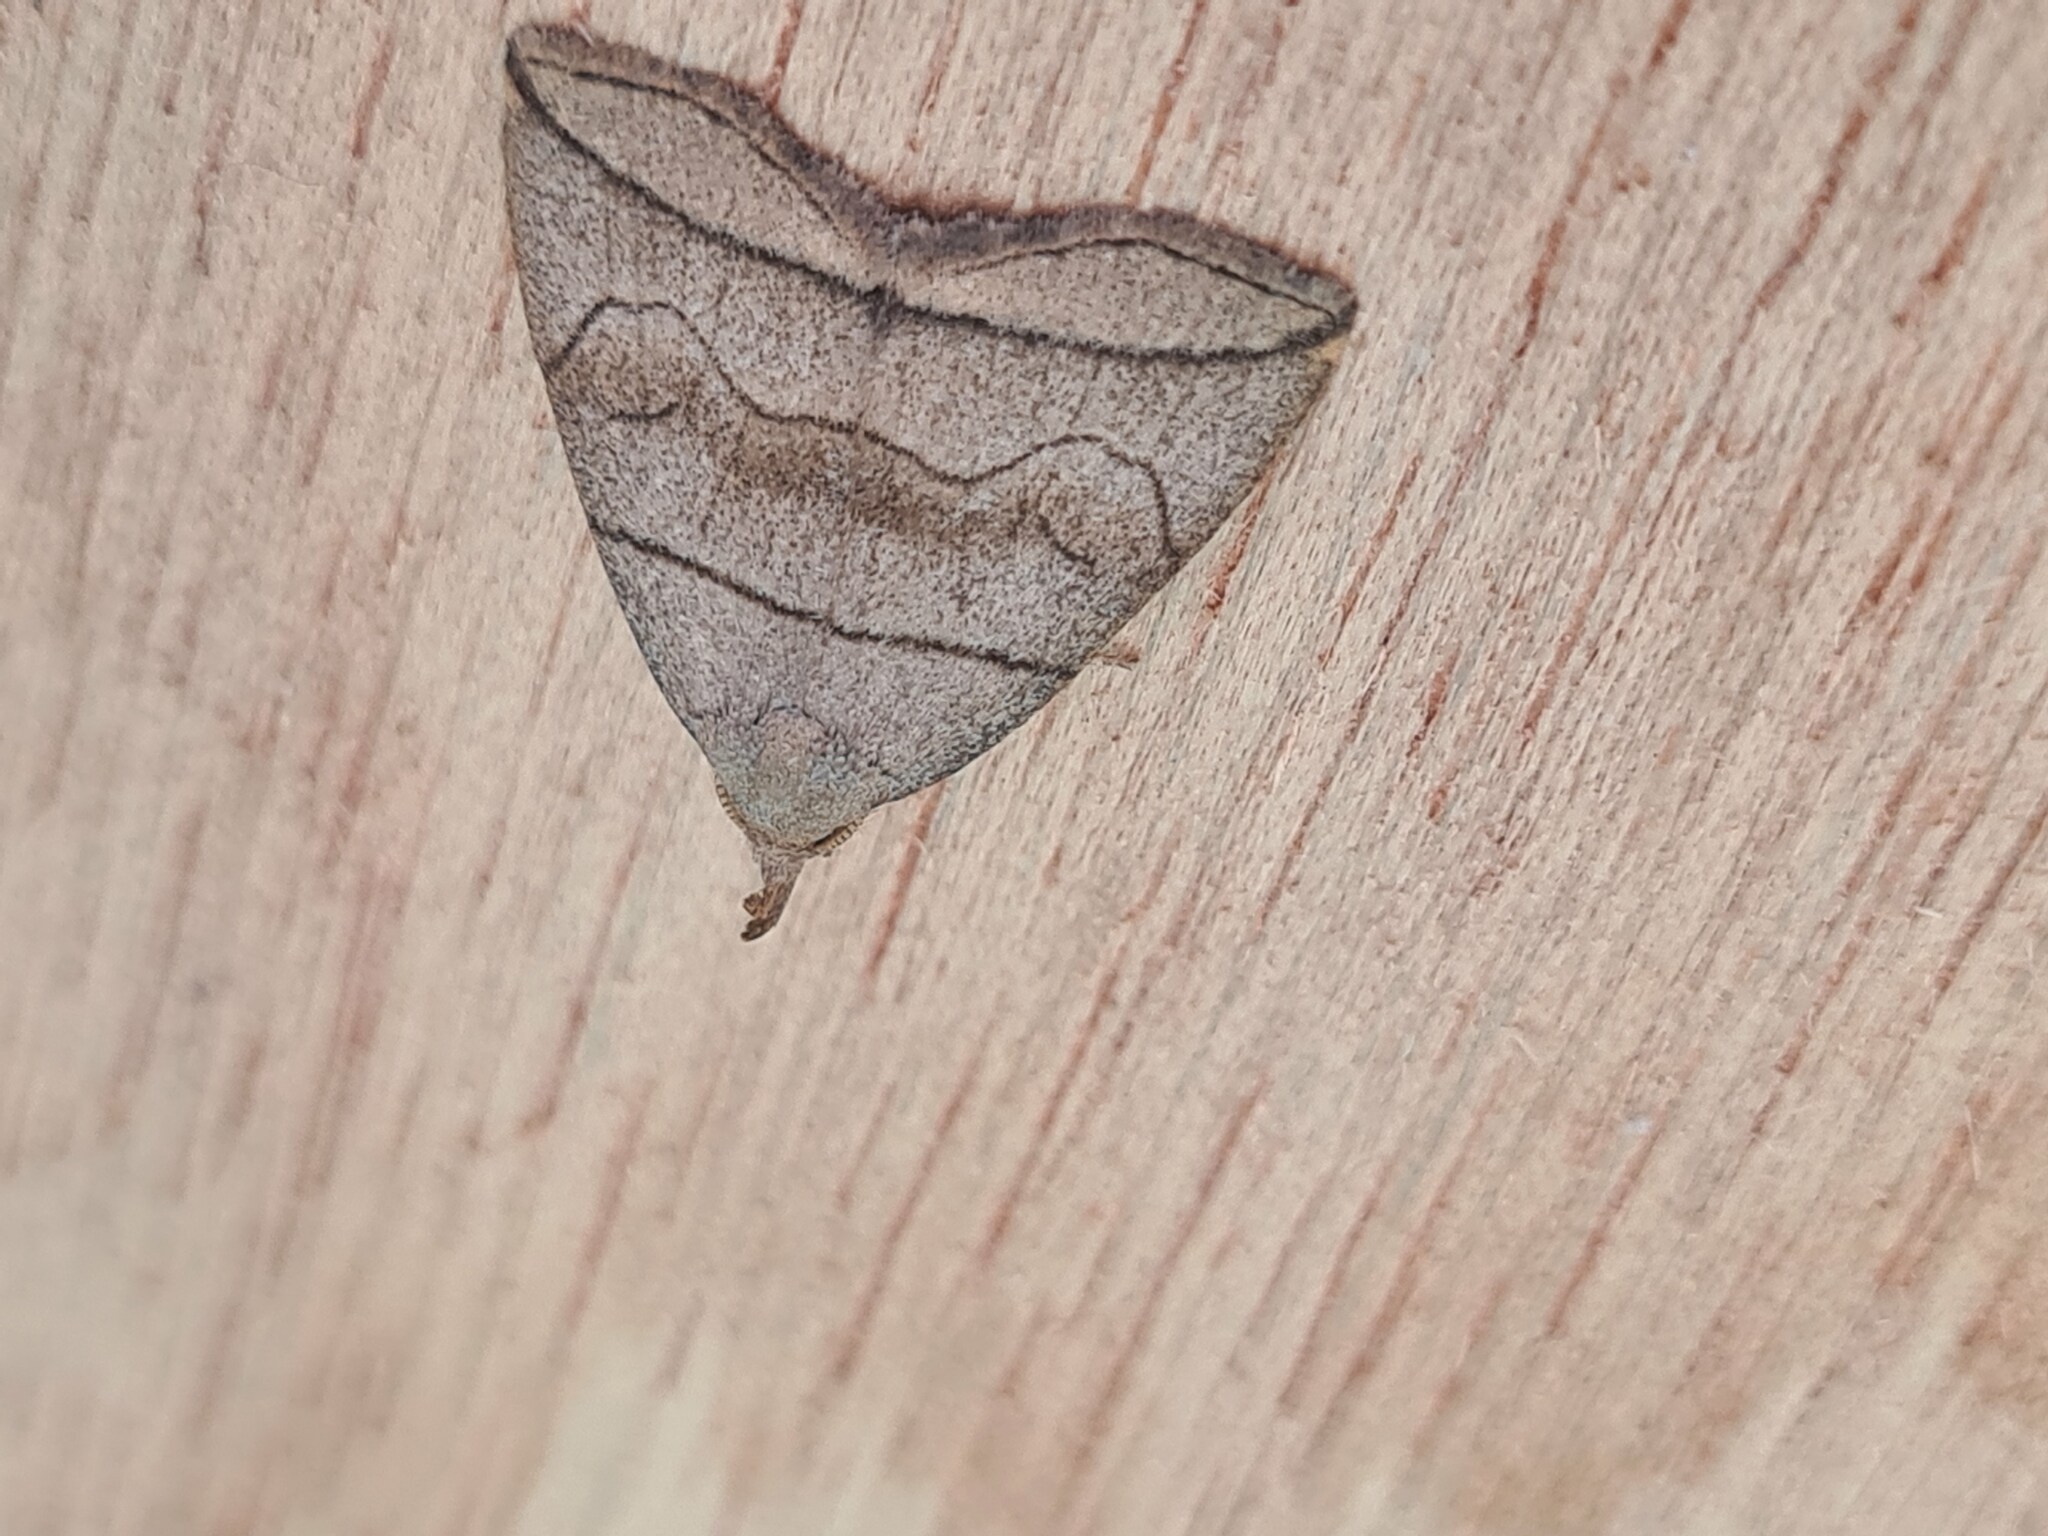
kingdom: Animalia
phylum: Arthropoda
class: Insecta
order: Lepidoptera
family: Erebidae
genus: Herminia
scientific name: Herminia grisealis
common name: Small fan-foot
